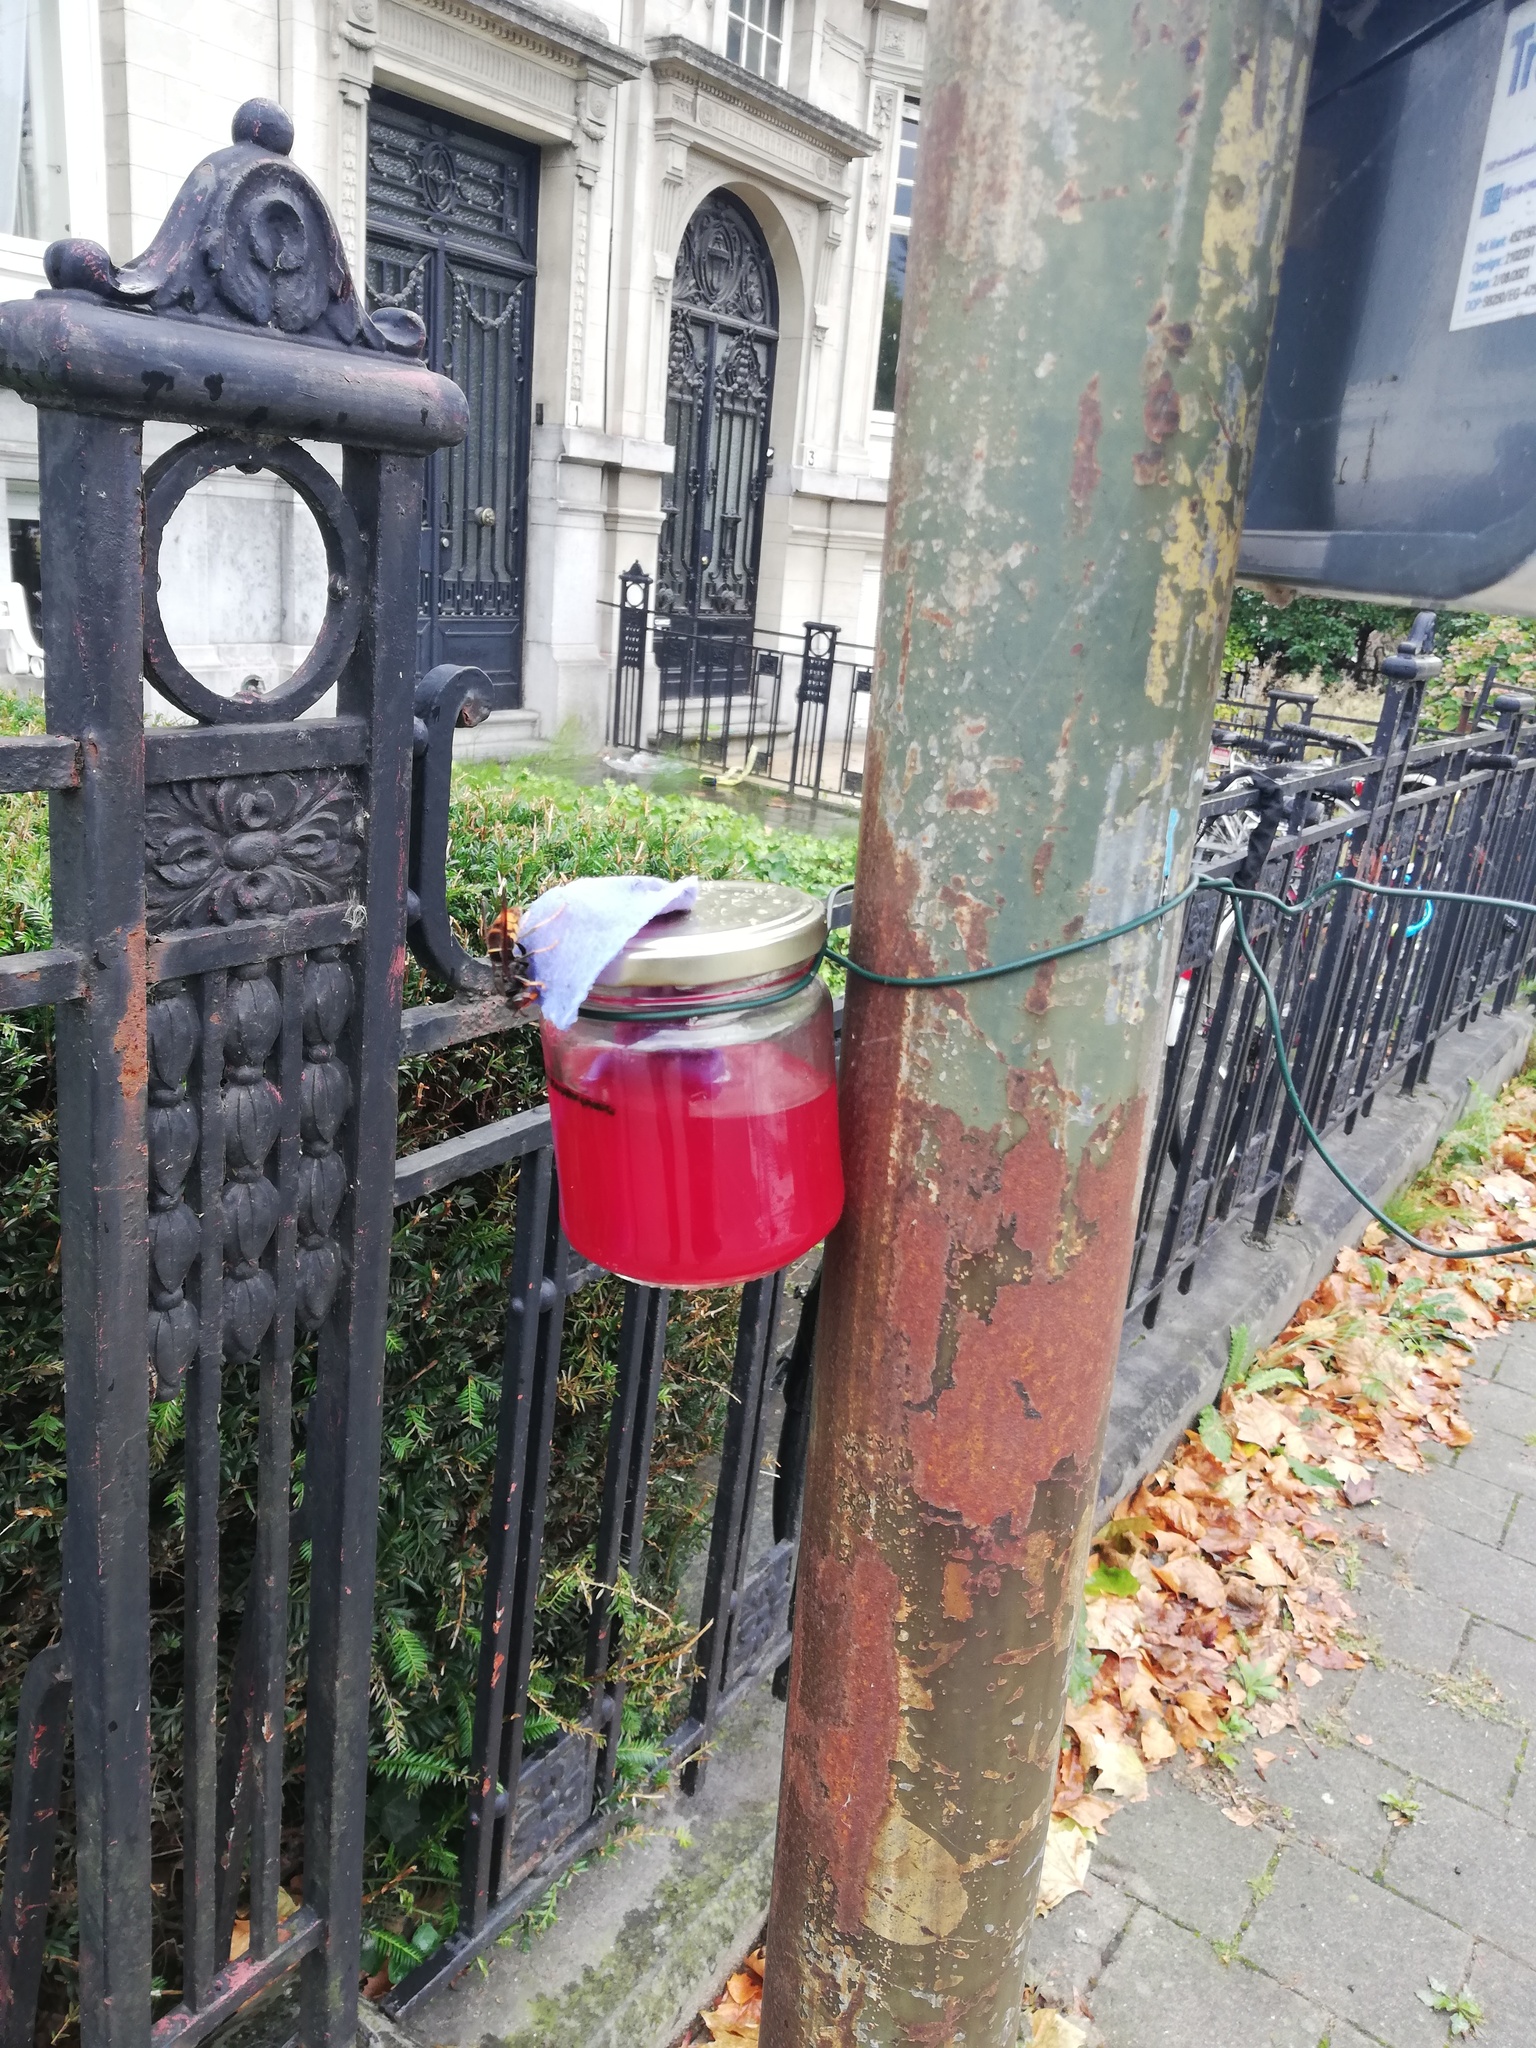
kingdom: Animalia
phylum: Arthropoda
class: Insecta
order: Hymenoptera
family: Vespidae
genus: Vespa
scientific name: Vespa velutina
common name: Asian hornet
